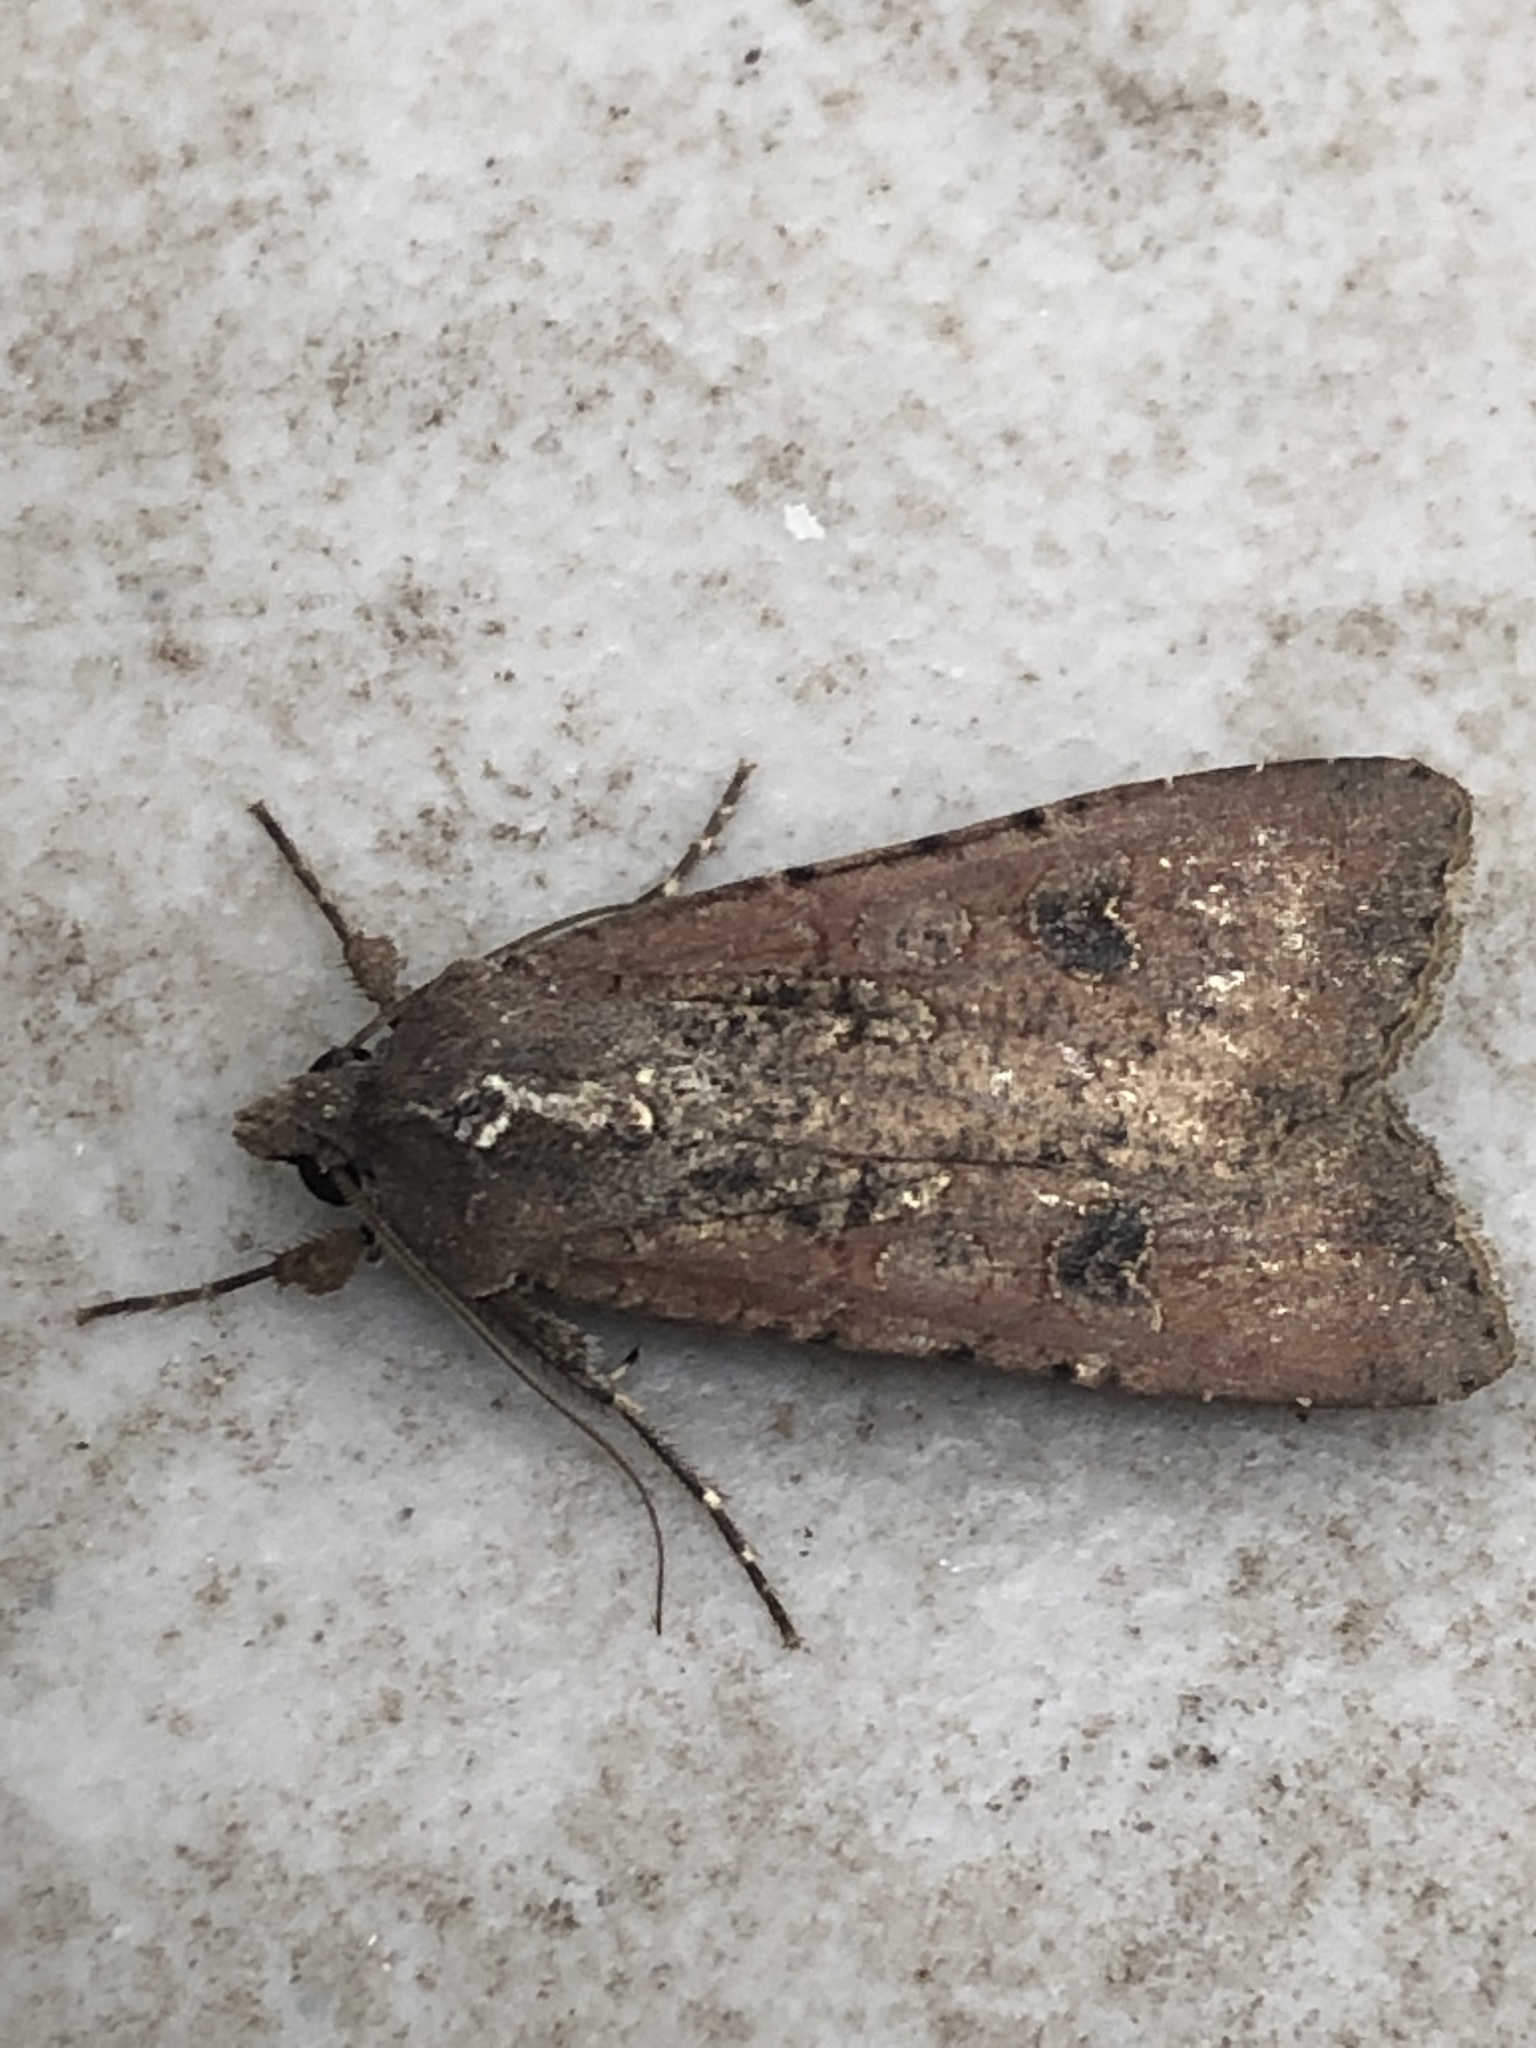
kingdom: Animalia
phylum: Arthropoda
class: Insecta
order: Lepidoptera
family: Noctuidae
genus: Peridroma
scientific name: Peridroma saucia
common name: Pearly underwing
